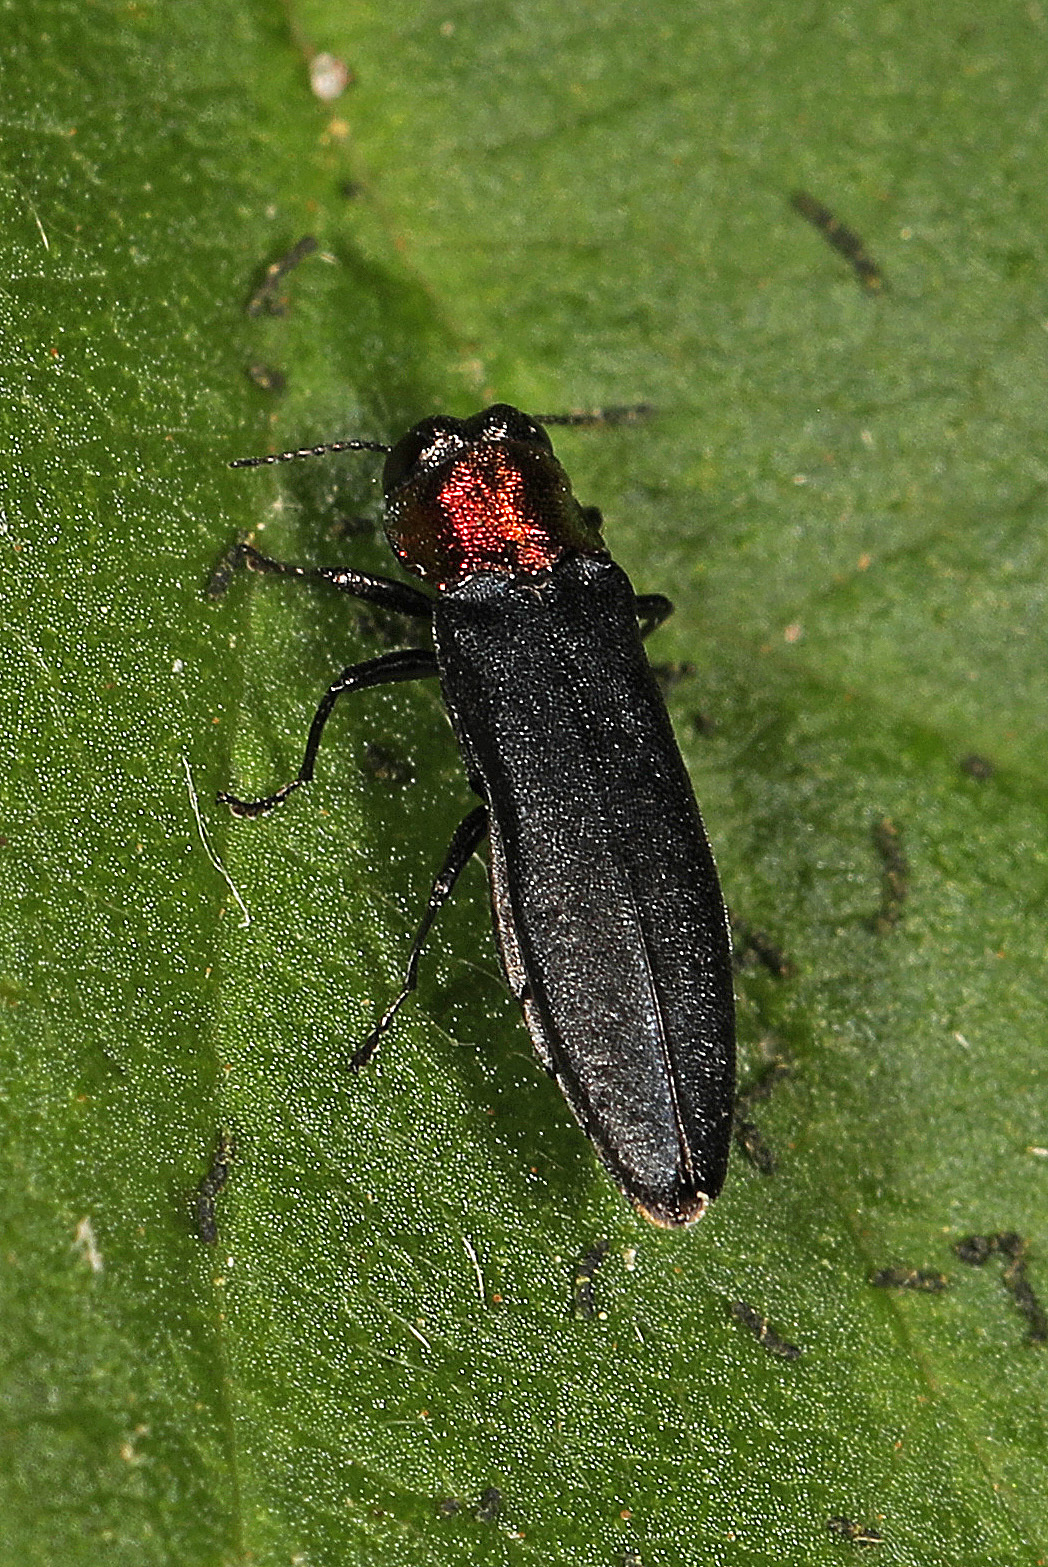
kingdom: Animalia
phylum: Arthropoda
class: Insecta
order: Coleoptera
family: Buprestidae
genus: Agrilus
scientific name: Agrilus ruficollis
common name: Red-necked cane borer beetle
